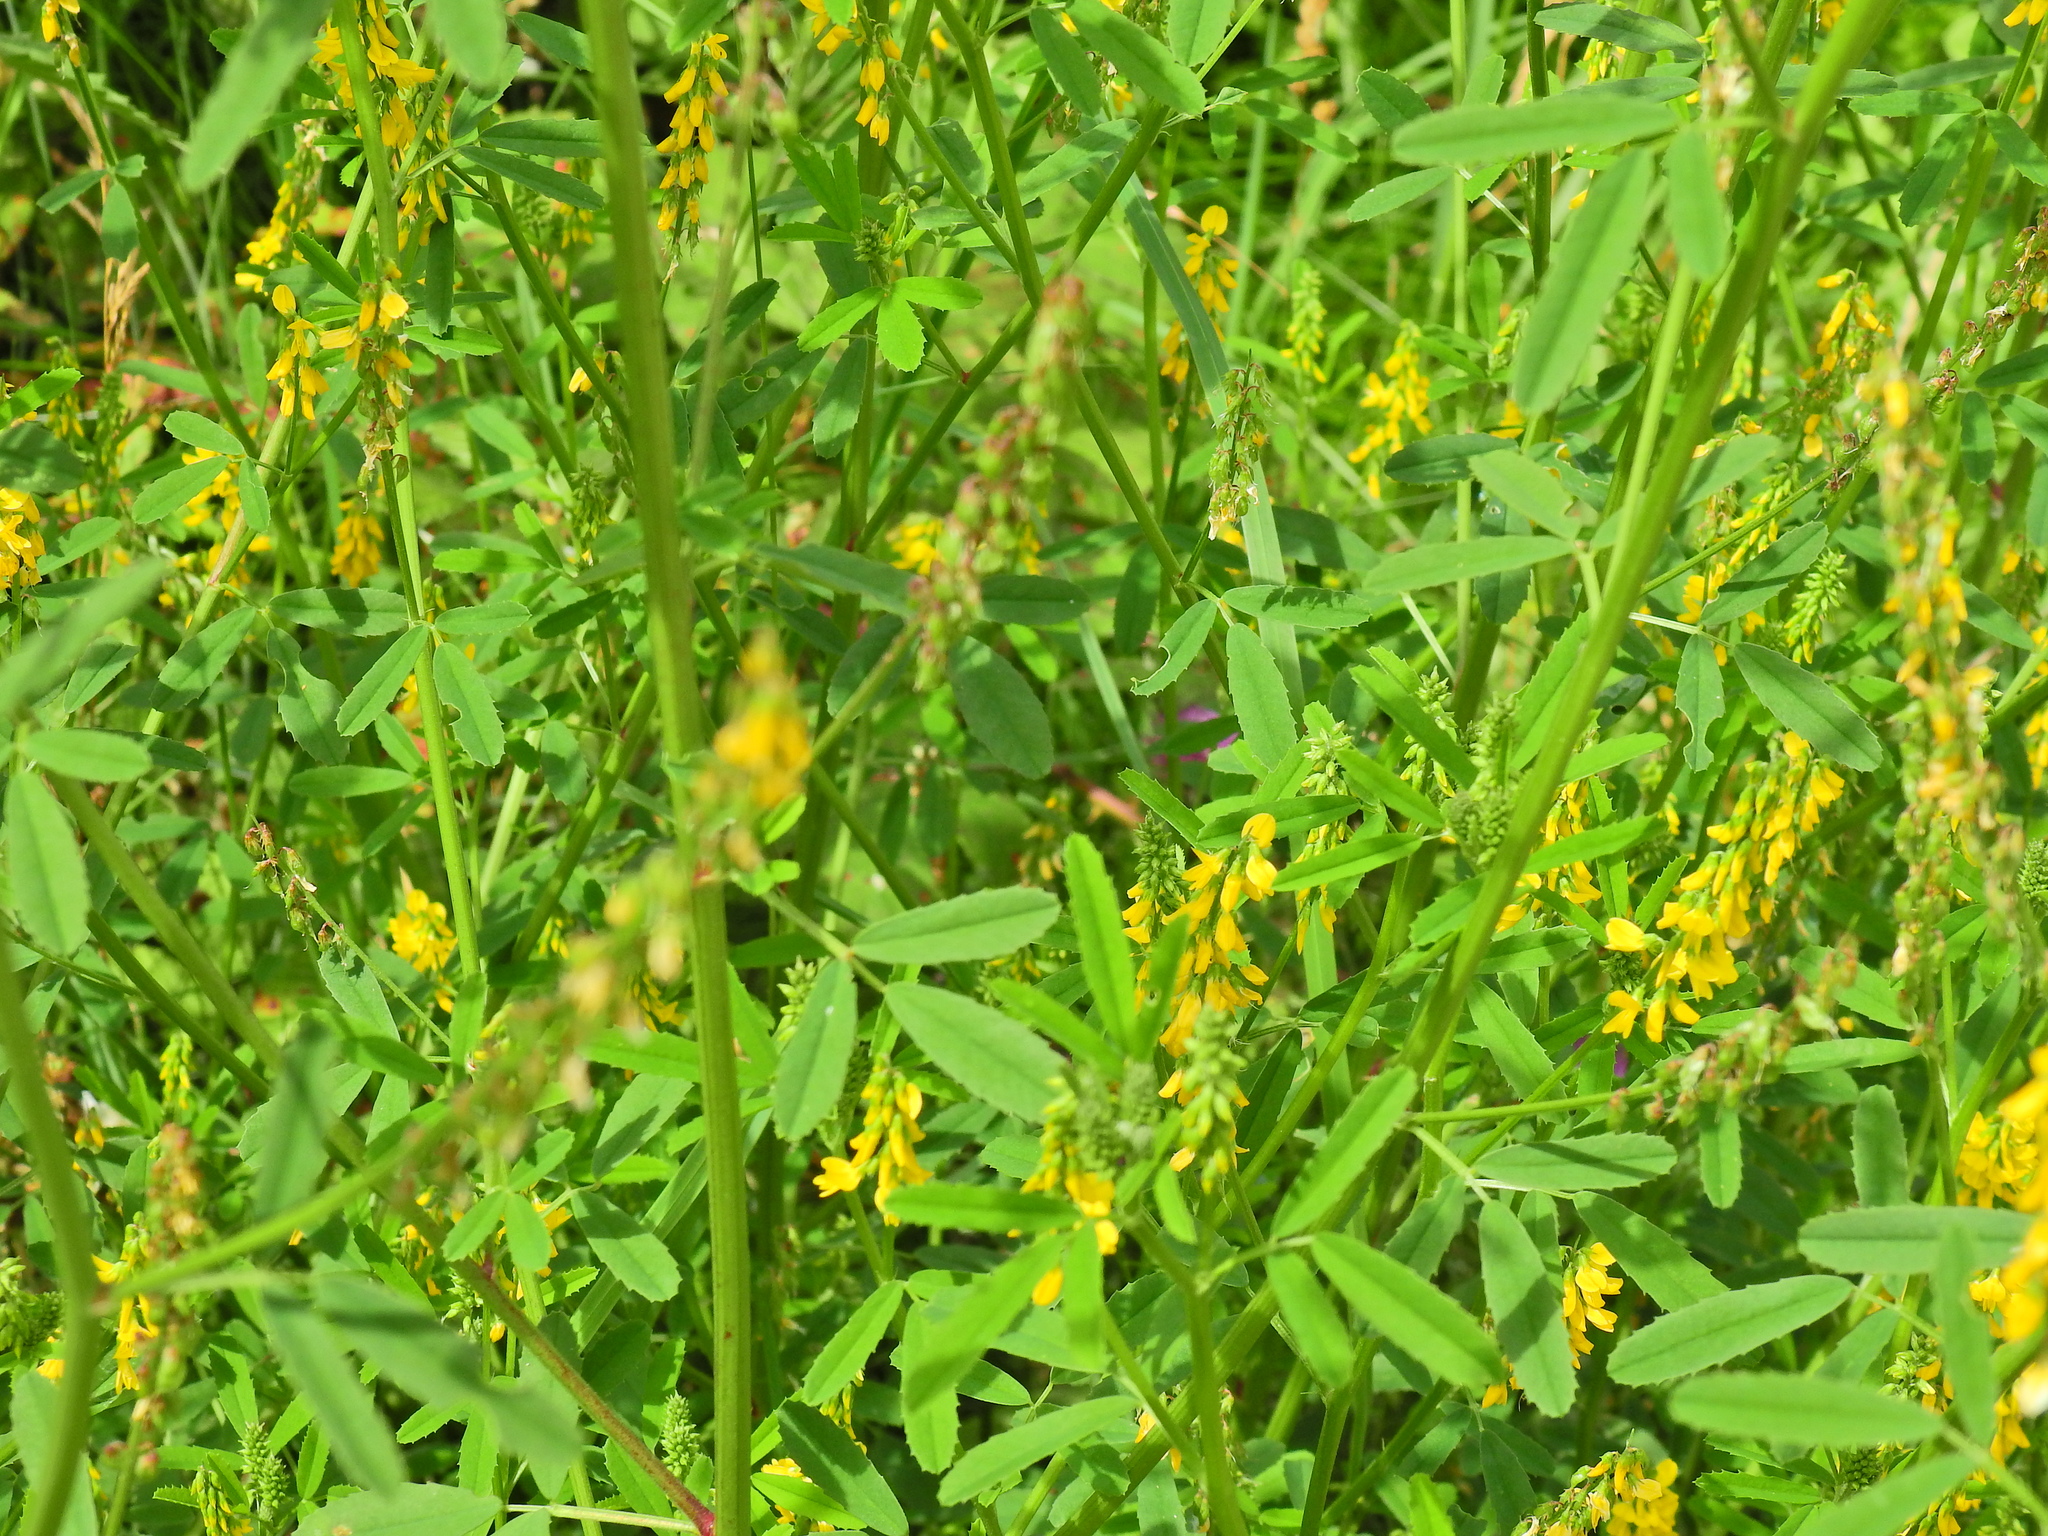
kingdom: Plantae
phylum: Tracheophyta
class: Magnoliopsida
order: Fabales
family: Fabaceae
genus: Melilotus
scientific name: Melilotus officinalis
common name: Sweetclover
